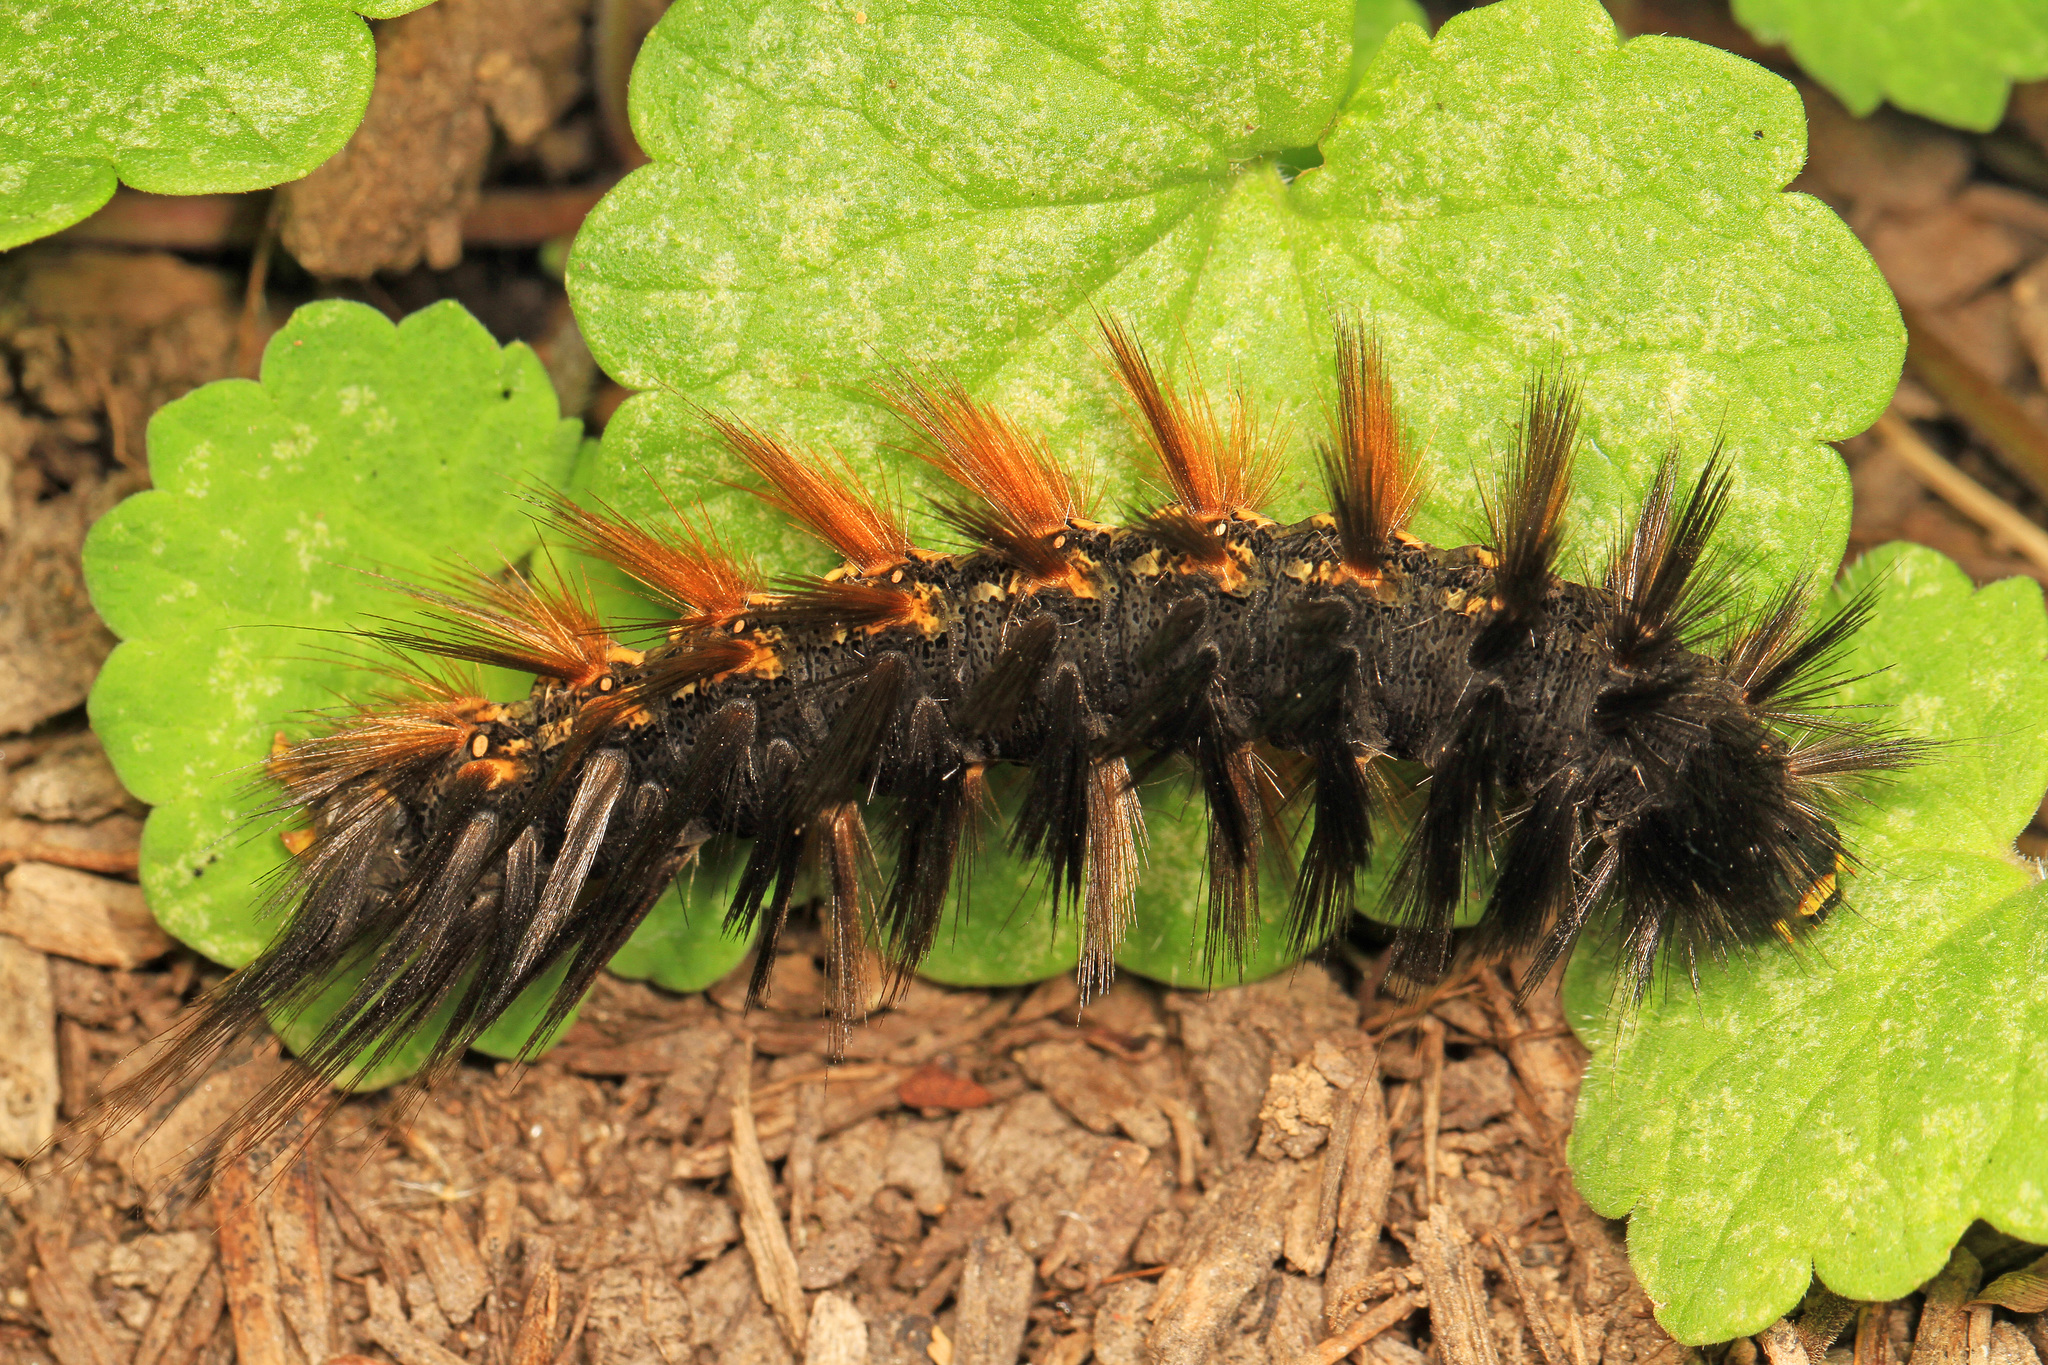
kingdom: Animalia
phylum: Arthropoda
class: Insecta
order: Lepidoptera
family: Erebidae
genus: Estigmene
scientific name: Estigmene acrea
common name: Salt marsh moth
